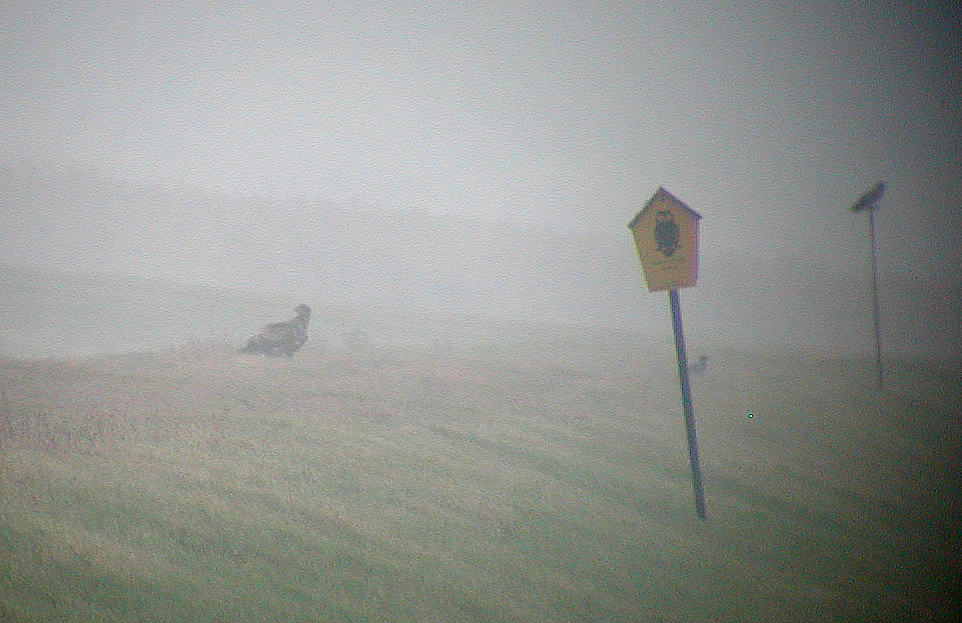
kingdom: Animalia
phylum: Chordata
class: Aves
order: Accipitriformes
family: Accipitridae
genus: Haliaeetus
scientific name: Haliaeetus albicilla
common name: White-tailed eagle
